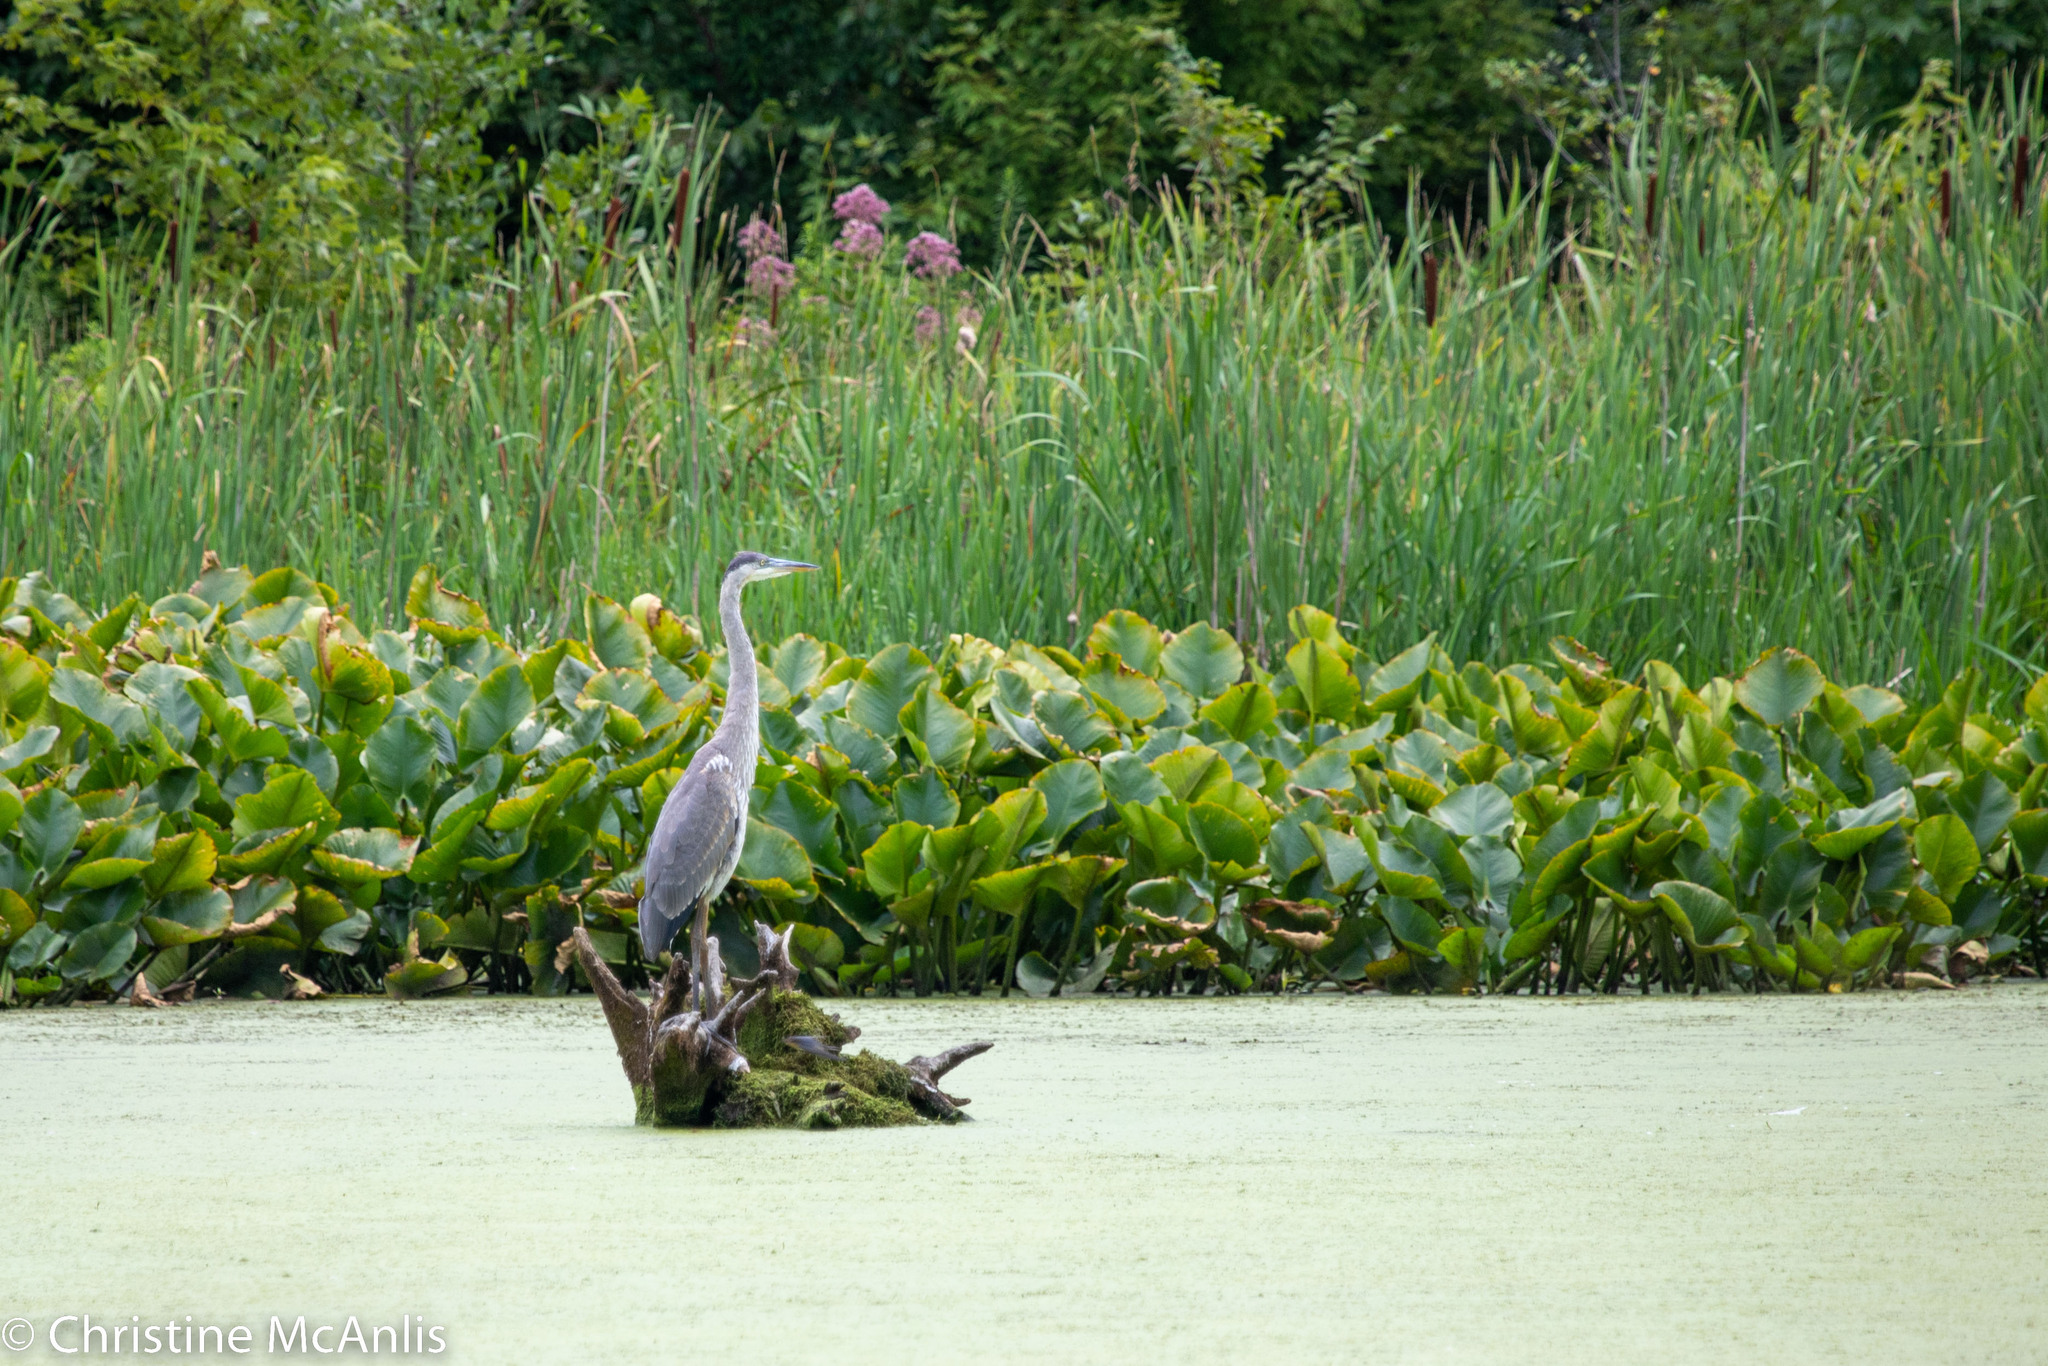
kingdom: Animalia
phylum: Chordata
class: Aves
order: Pelecaniformes
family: Ardeidae
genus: Ardea
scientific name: Ardea herodias
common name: Great blue heron
